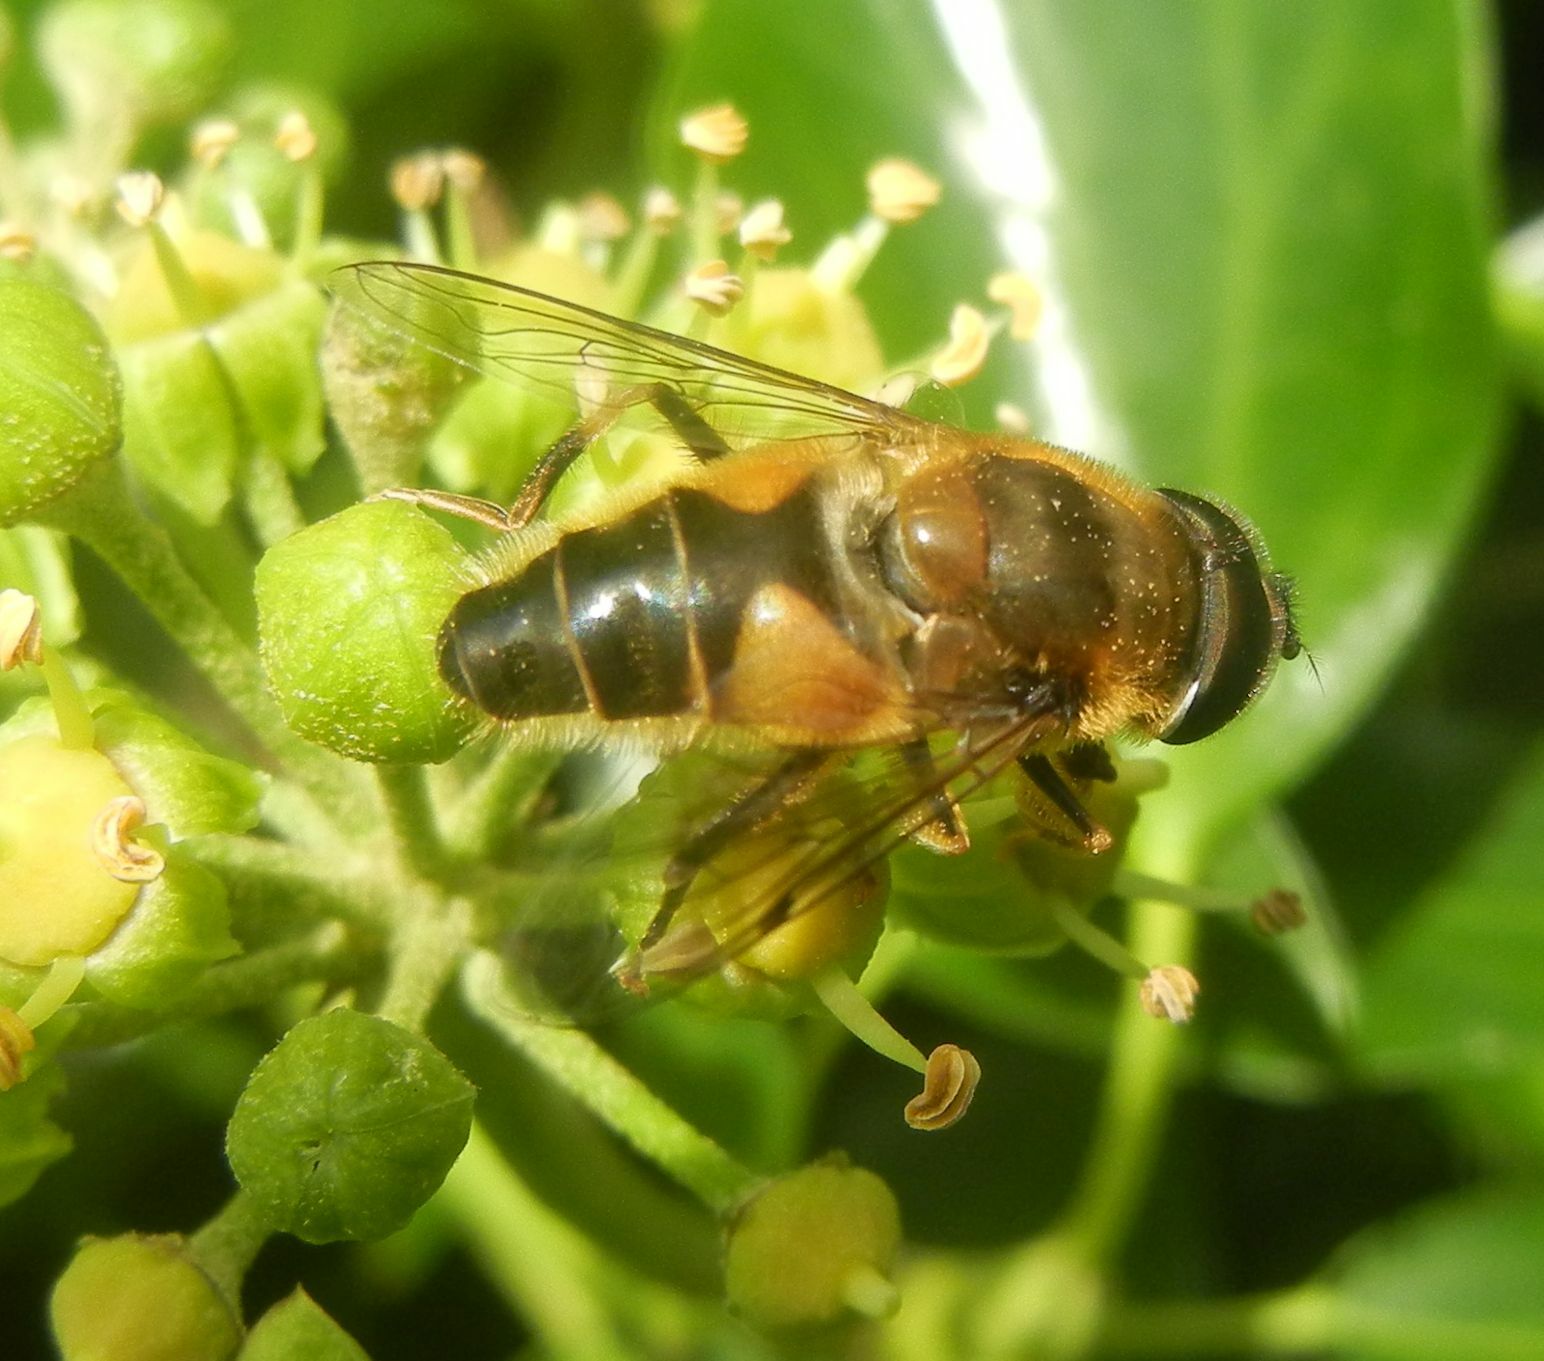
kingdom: Animalia
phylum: Arthropoda
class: Insecta
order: Diptera
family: Syrphidae
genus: Eristalis
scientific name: Eristalis pertinax
